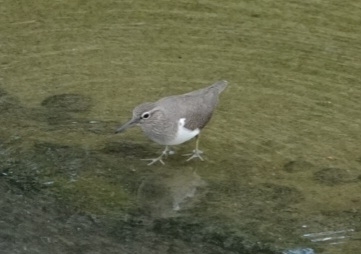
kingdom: Animalia
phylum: Chordata
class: Aves
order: Charadriiformes
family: Scolopacidae
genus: Actitis
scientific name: Actitis hypoleucos
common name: Common sandpiper
